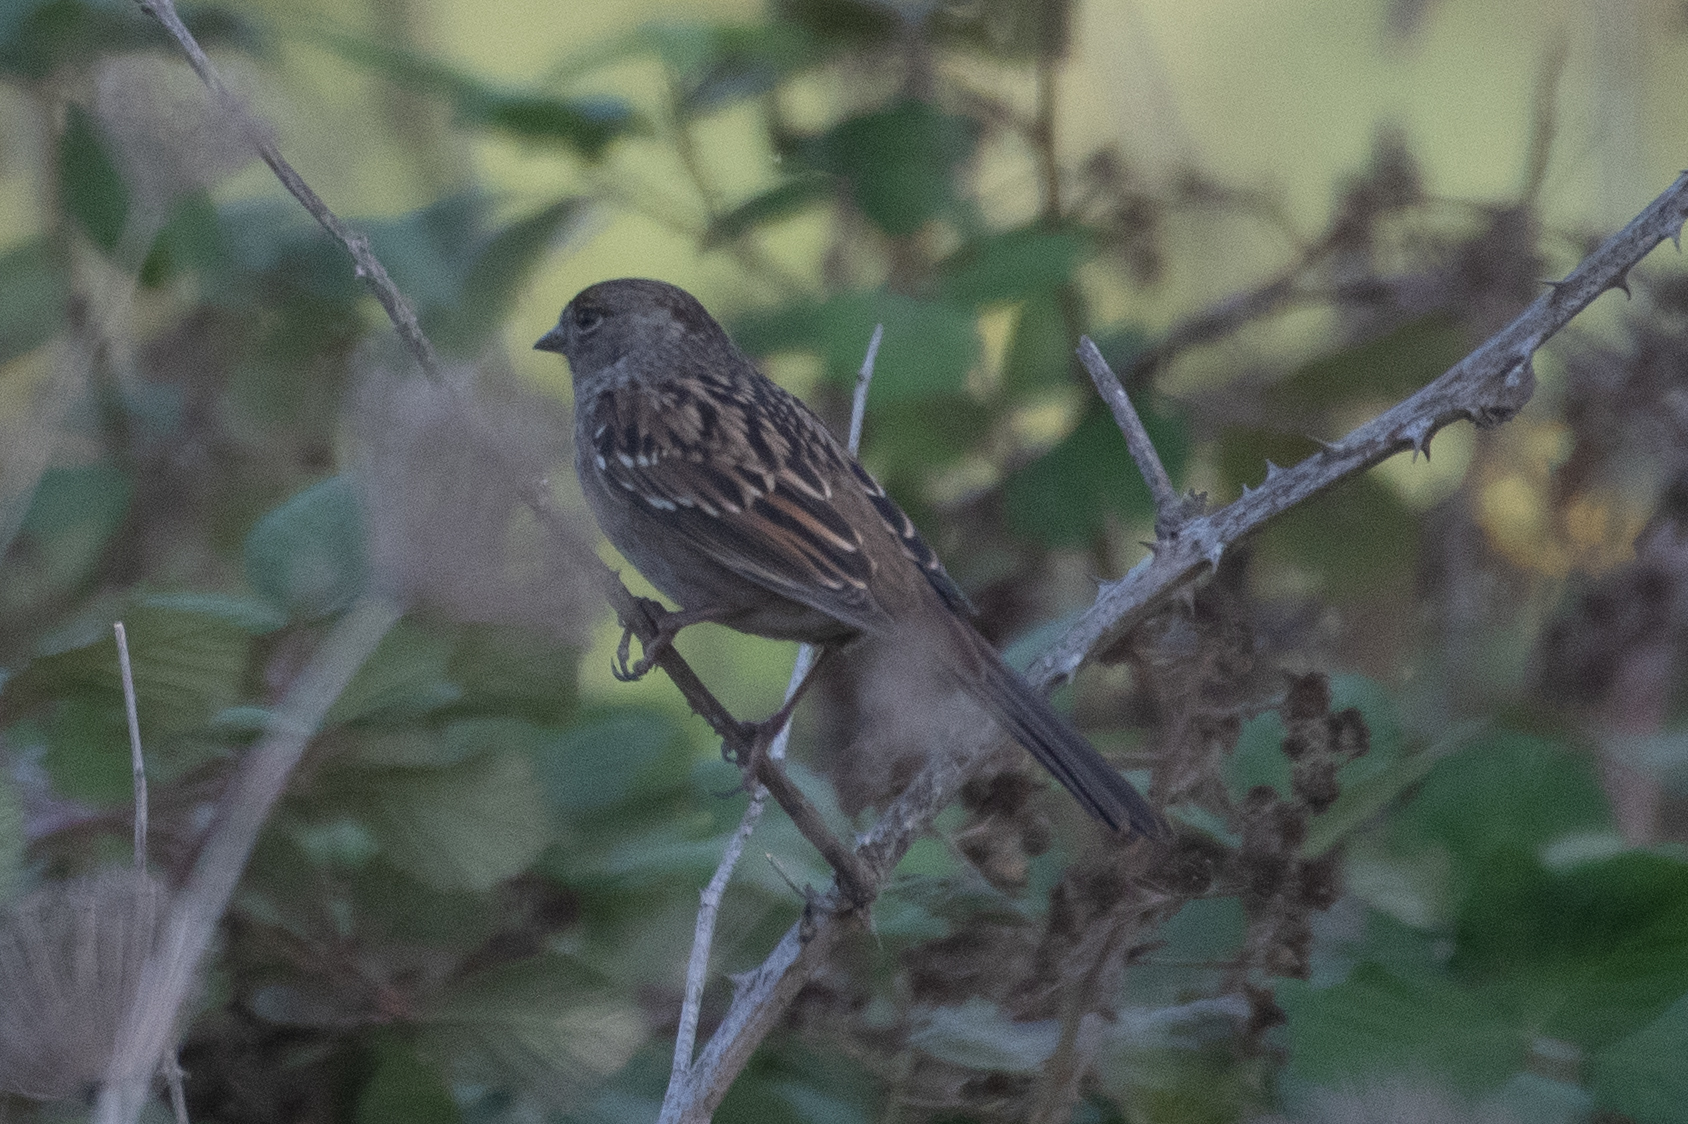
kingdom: Animalia
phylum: Chordata
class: Aves
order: Passeriformes
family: Passerellidae
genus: Zonotrichia
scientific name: Zonotrichia atricapilla
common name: Golden-crowned sparrow
